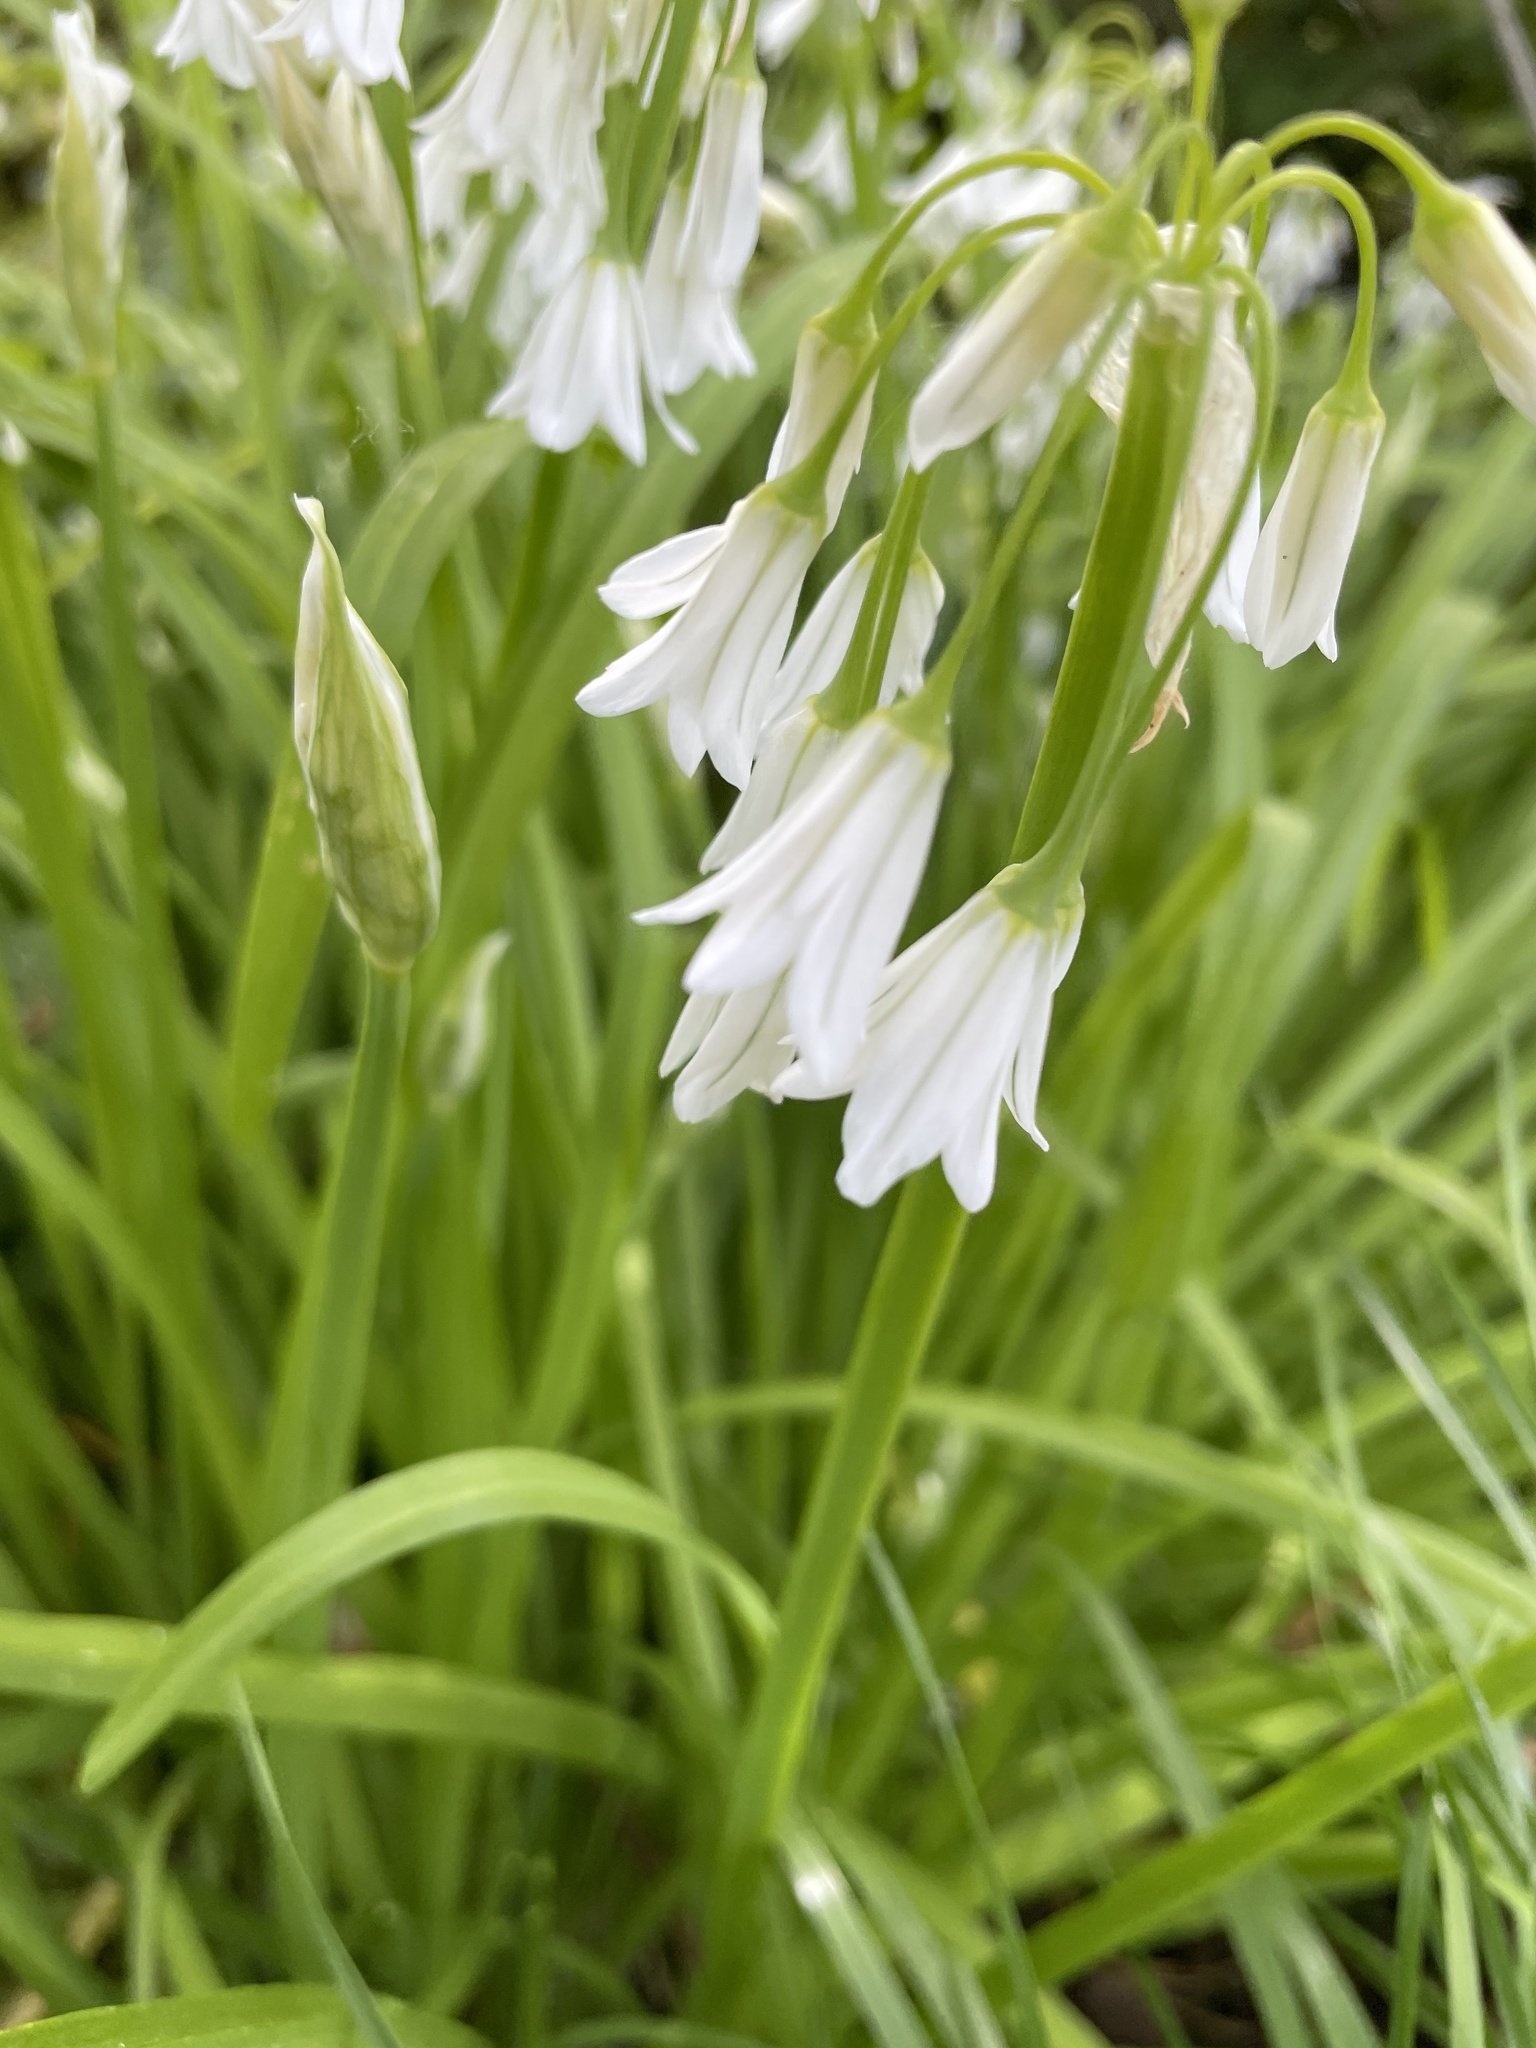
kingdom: Plantae
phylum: Tracheophyta
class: Liliopsida
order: Asparagales
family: Amaryllidaceae
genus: Allium
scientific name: Allium triquetrum
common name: Three-cornered garlic
